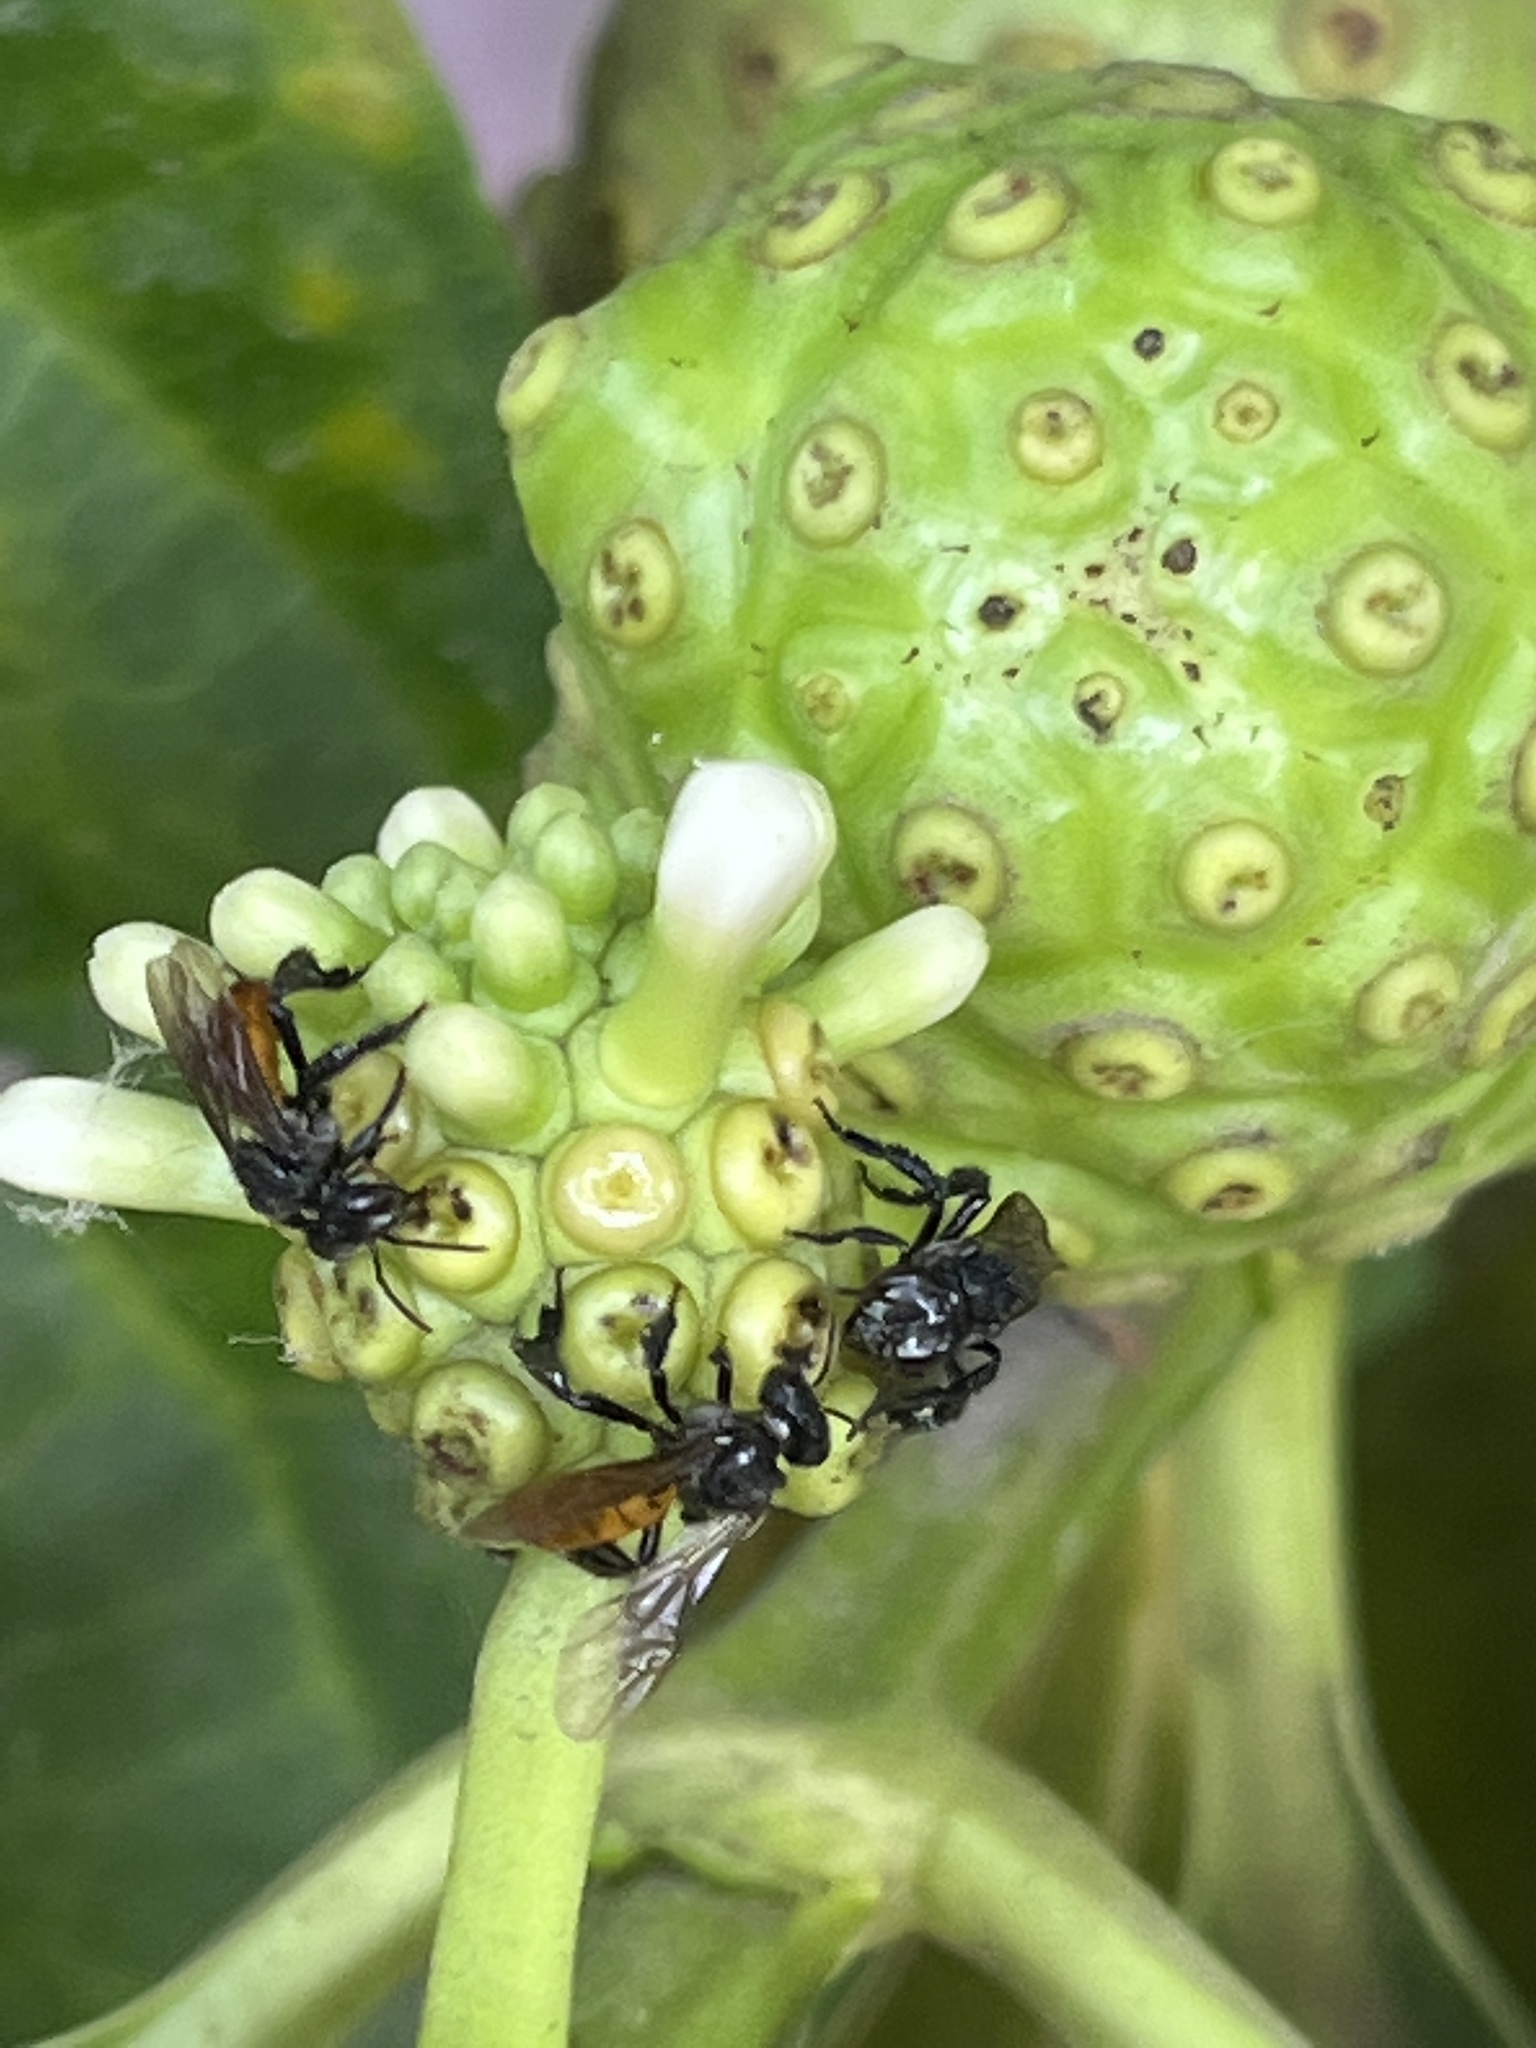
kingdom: Animalia
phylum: Arthropoda
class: Insecta
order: Hymenoptera
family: Apidae
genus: Trigona
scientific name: Trigona fulviventris
